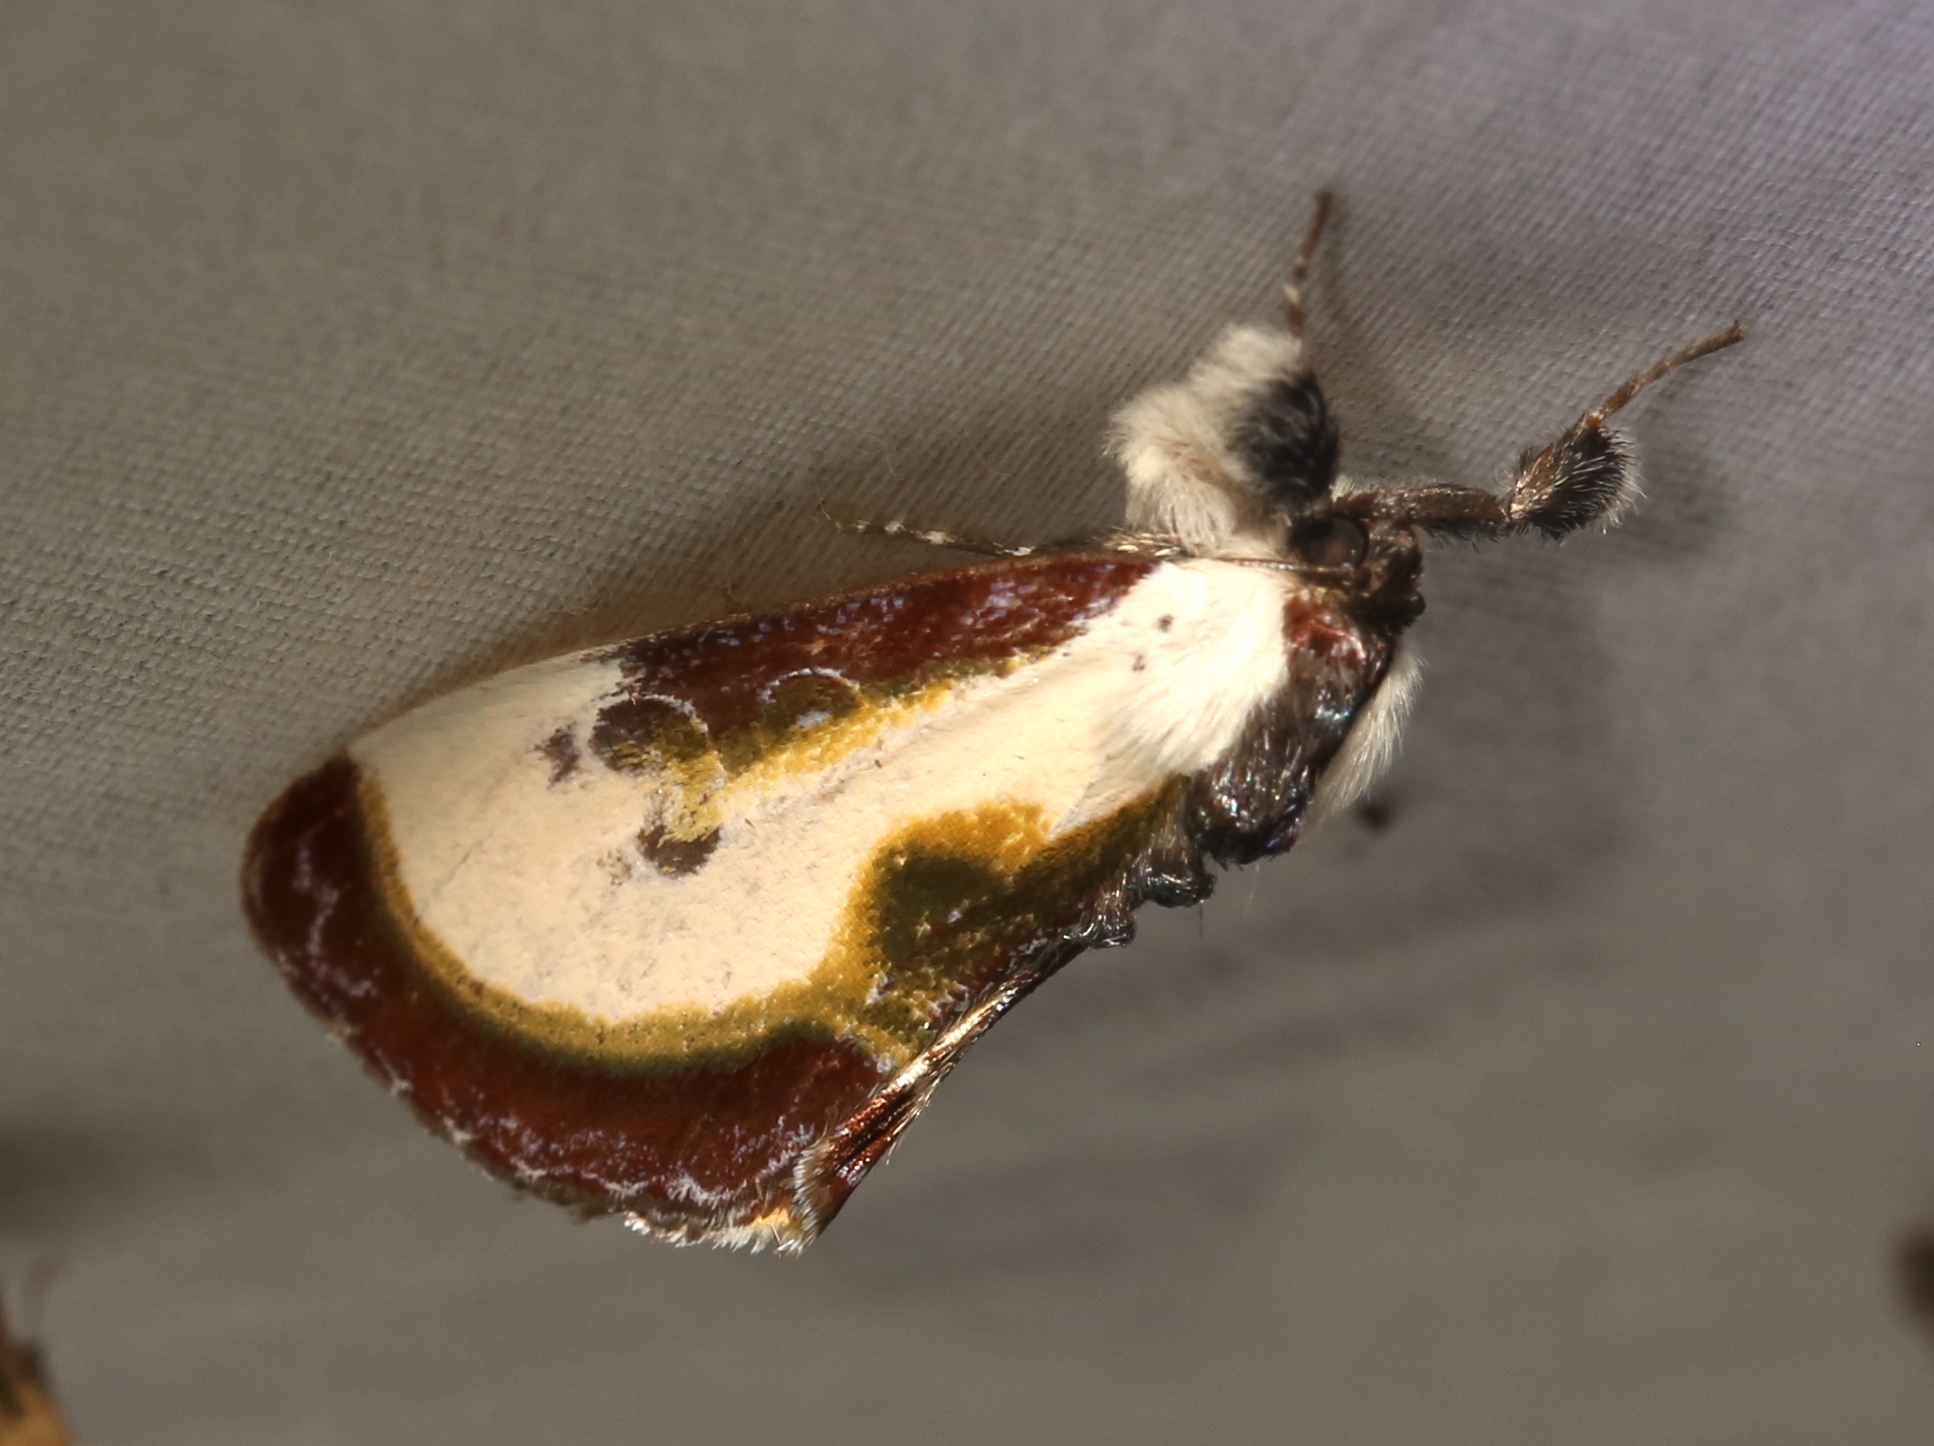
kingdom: Animalia
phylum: Arthropoda
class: Insecta
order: Lepidoptera
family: Noctuidae
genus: Eudryas
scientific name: Eudryas grata
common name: Beautiful wood-nymph
